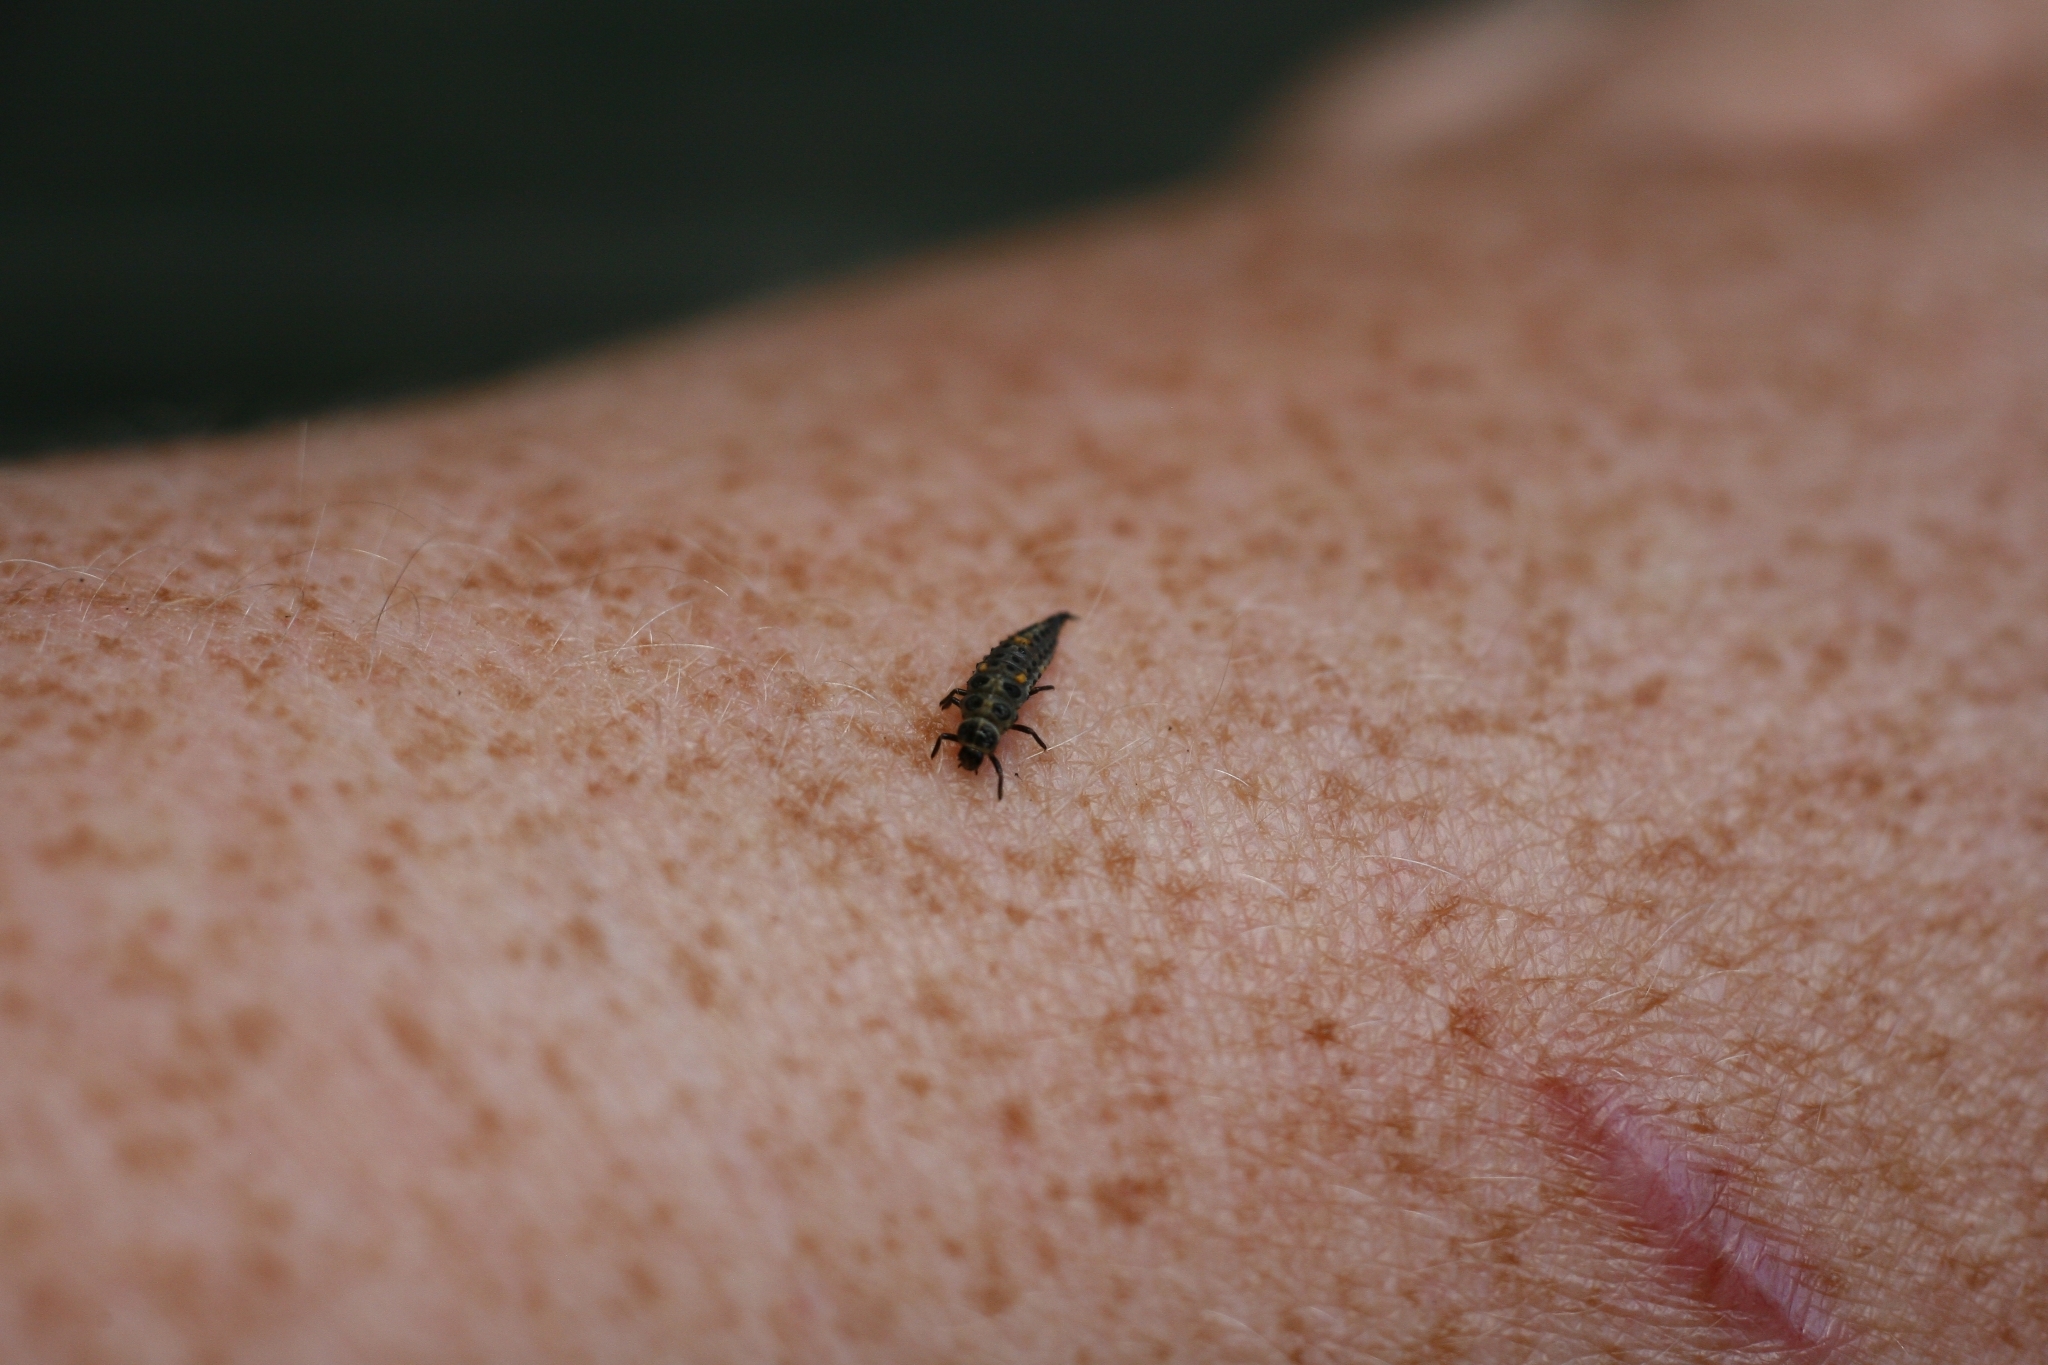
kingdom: Animalia
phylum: Arthropoda
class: Insecta
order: Coleoptera
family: Coccinellidae
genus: Adalia
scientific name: Adalia bipunctata
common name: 2-spot ladybird
